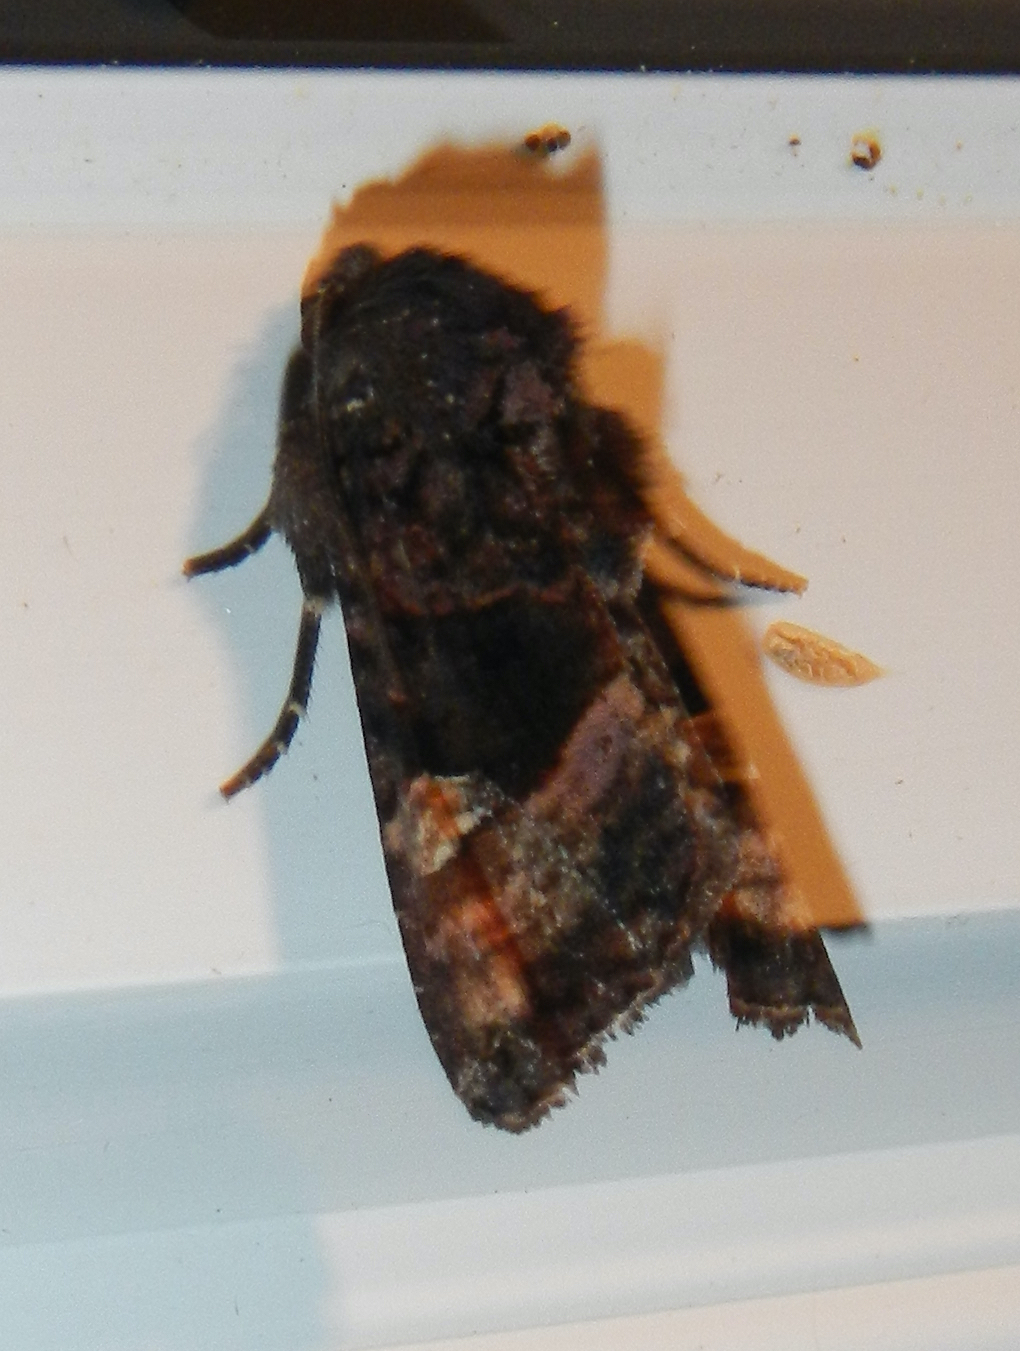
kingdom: Animalia
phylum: Arthropoda
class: Insecta
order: Lepidoptera
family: Noctuidae
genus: Euplexia
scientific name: Euplexia benesimilis
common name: American angle shades
